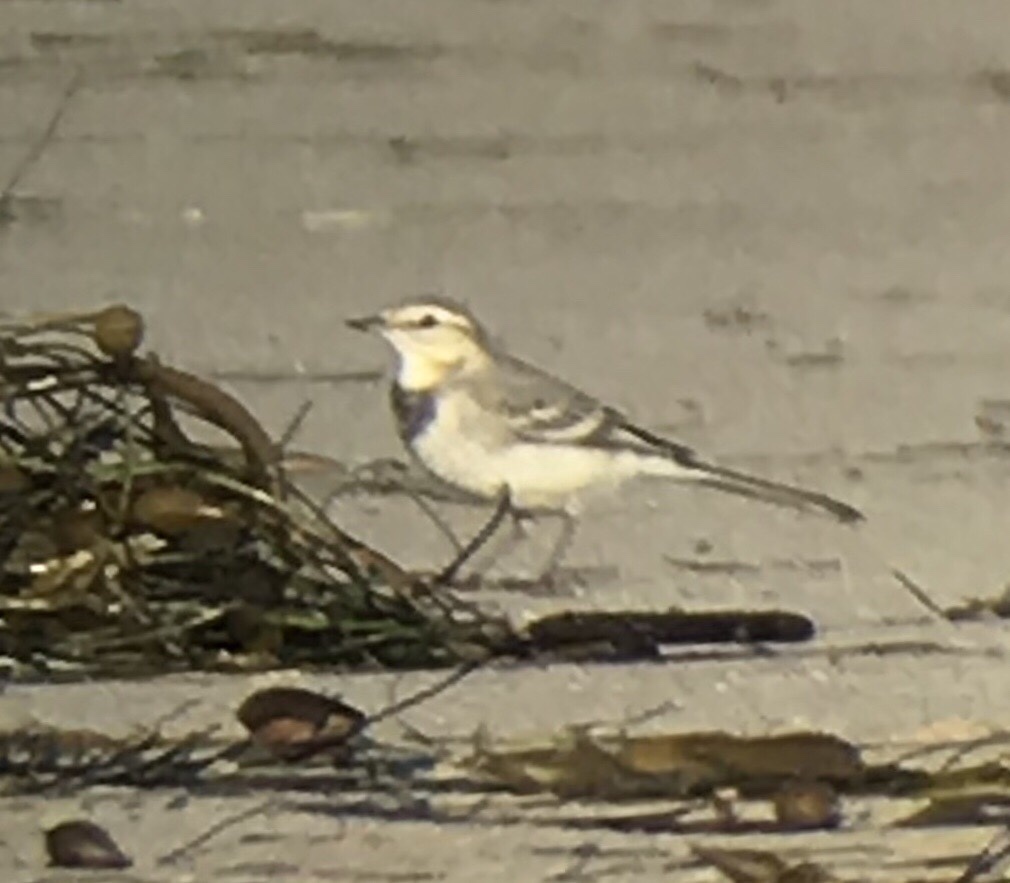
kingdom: Animalia
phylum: Chordata
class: Aves
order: Passeriformes
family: Motacillidae
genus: Motacilla
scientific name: Motacilla alba
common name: White wagtail
